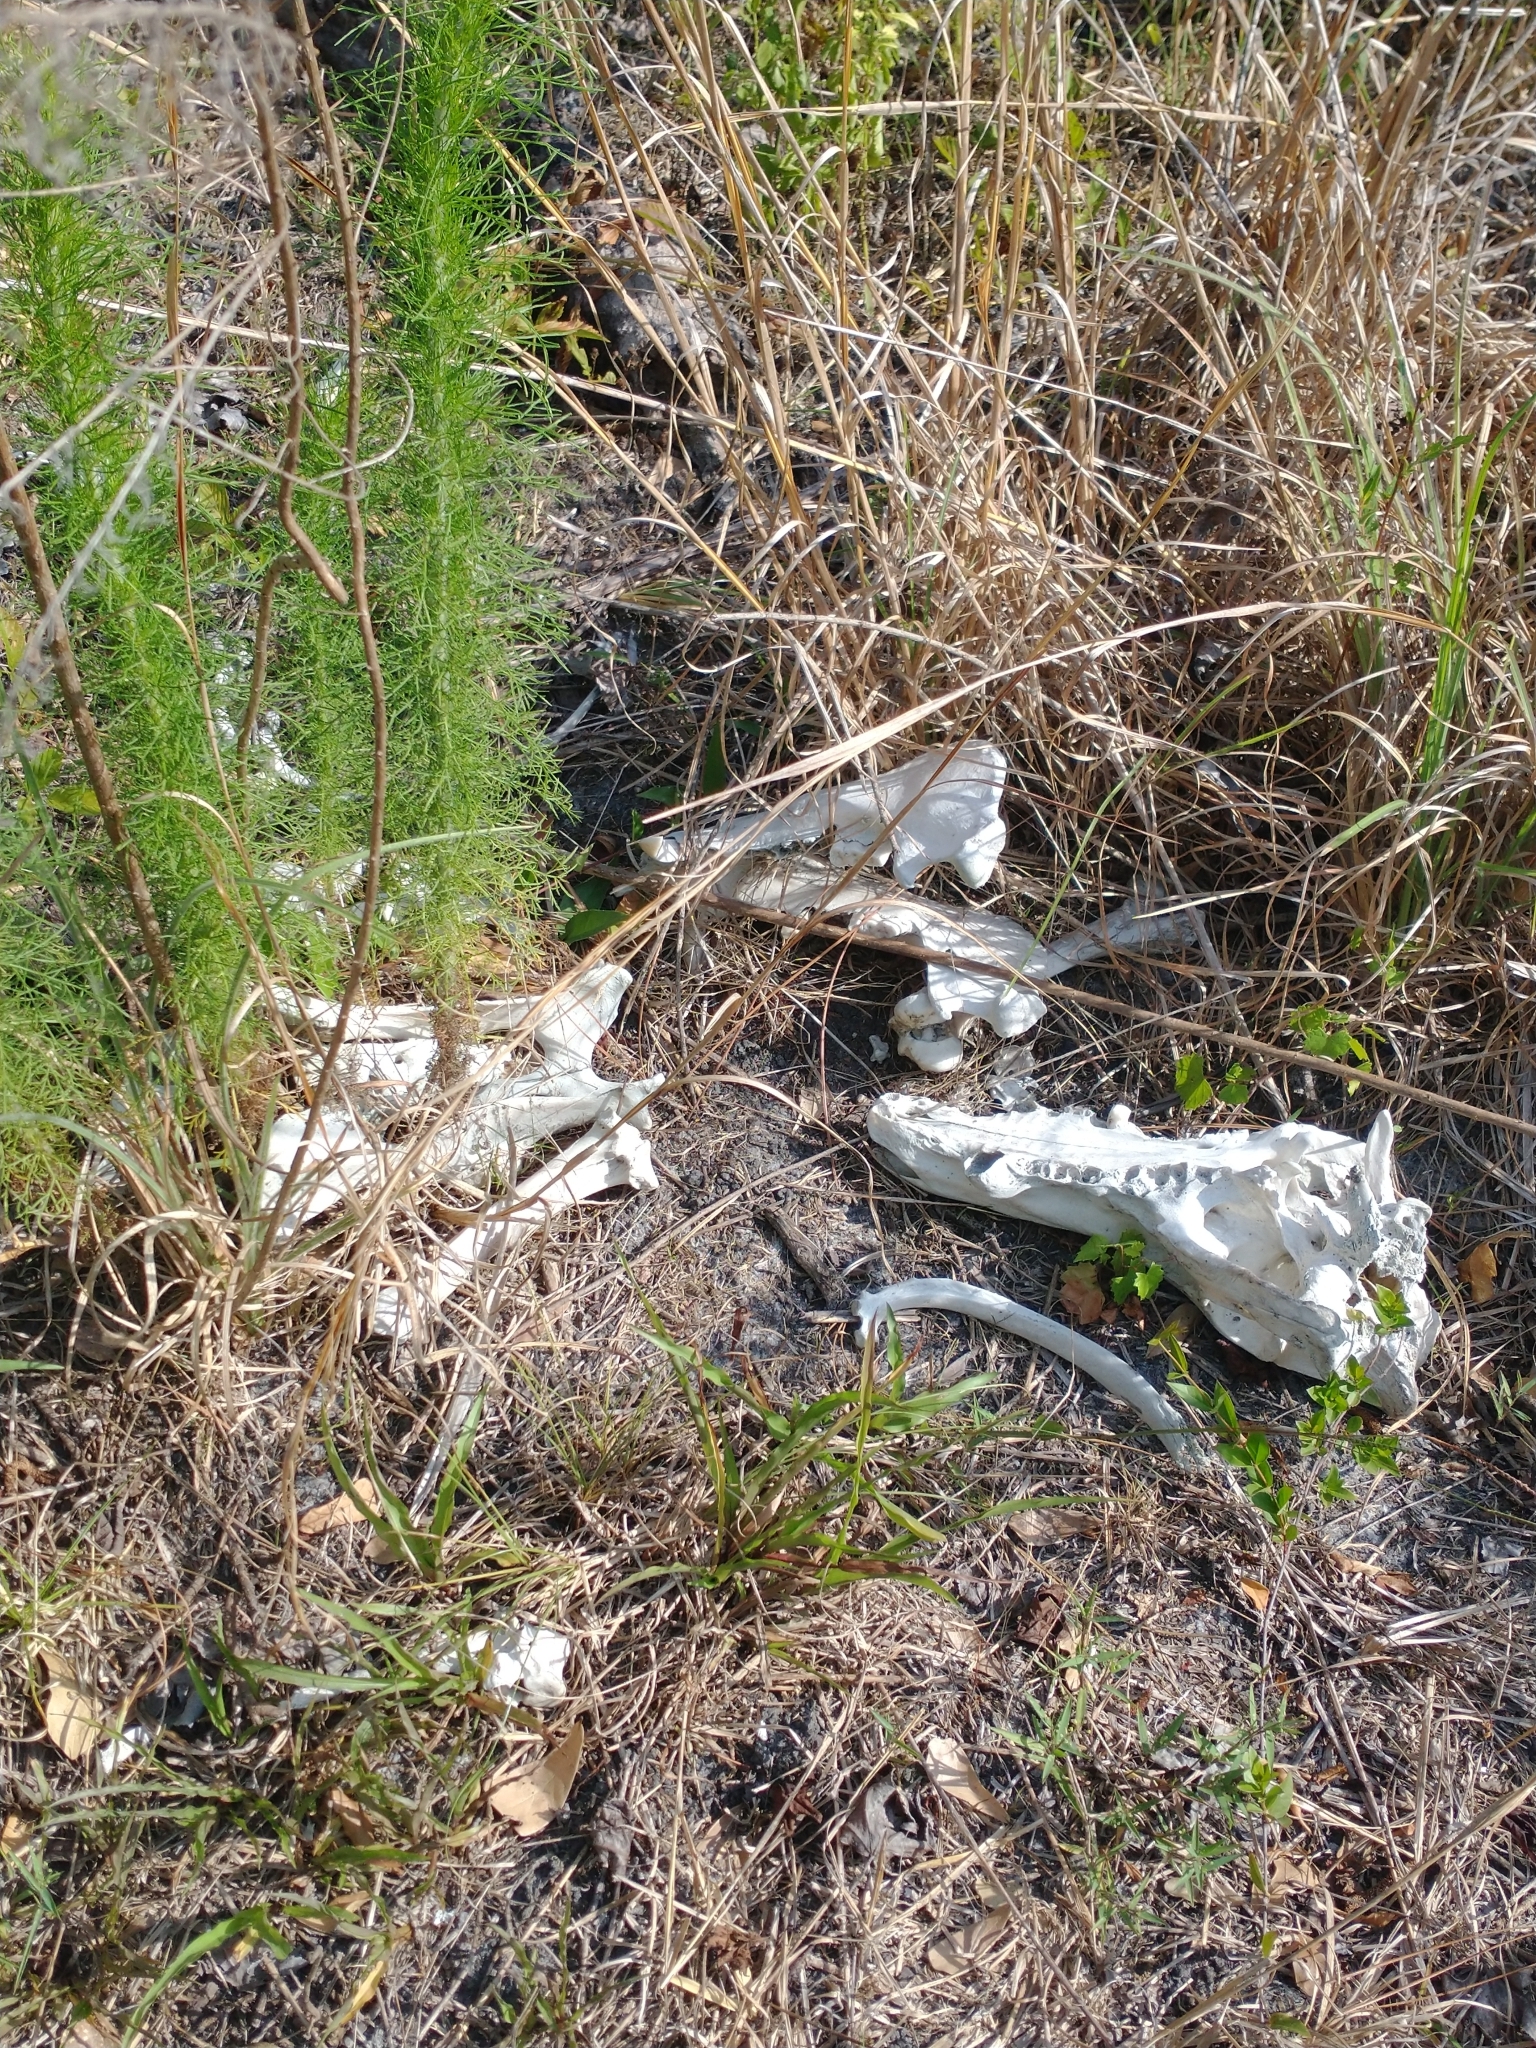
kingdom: Animalia
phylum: Chordata
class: Mammalia
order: Artiodactyla
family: Suidae
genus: Sus
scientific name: Sus scrofa
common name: Wild boar
